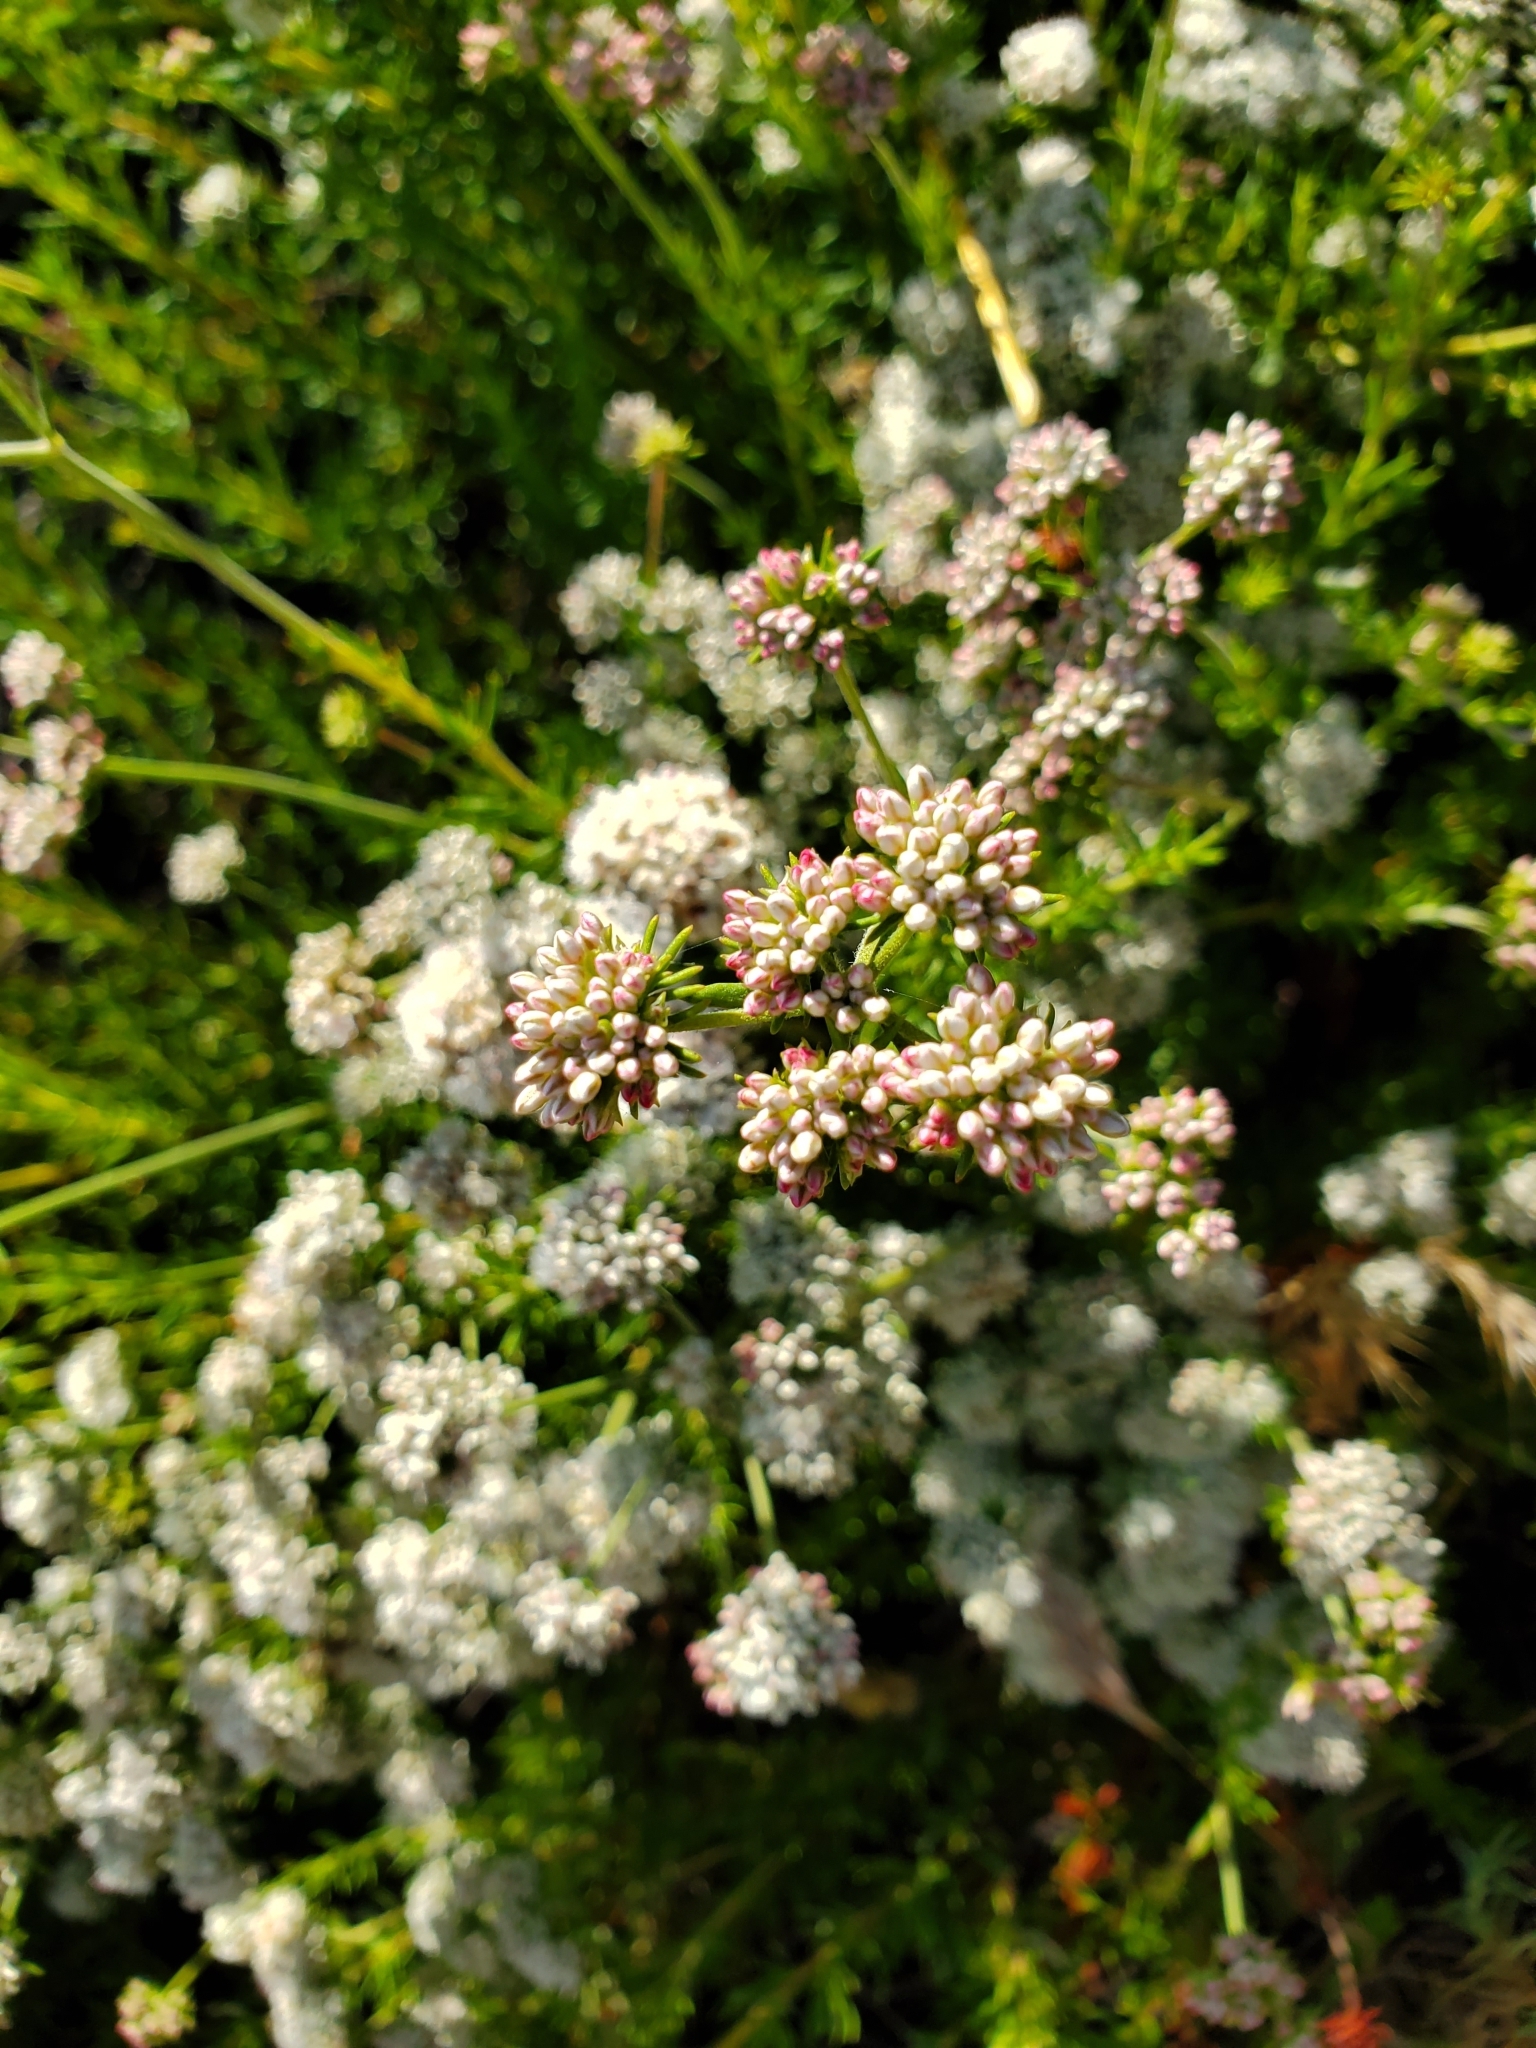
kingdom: Plantae
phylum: Tracheophyta
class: Magnoliopsida
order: Caryophyllales
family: Polygonaceae
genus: Eriogonum
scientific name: Eriogonum fasciculatum
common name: California wild buckwheat
